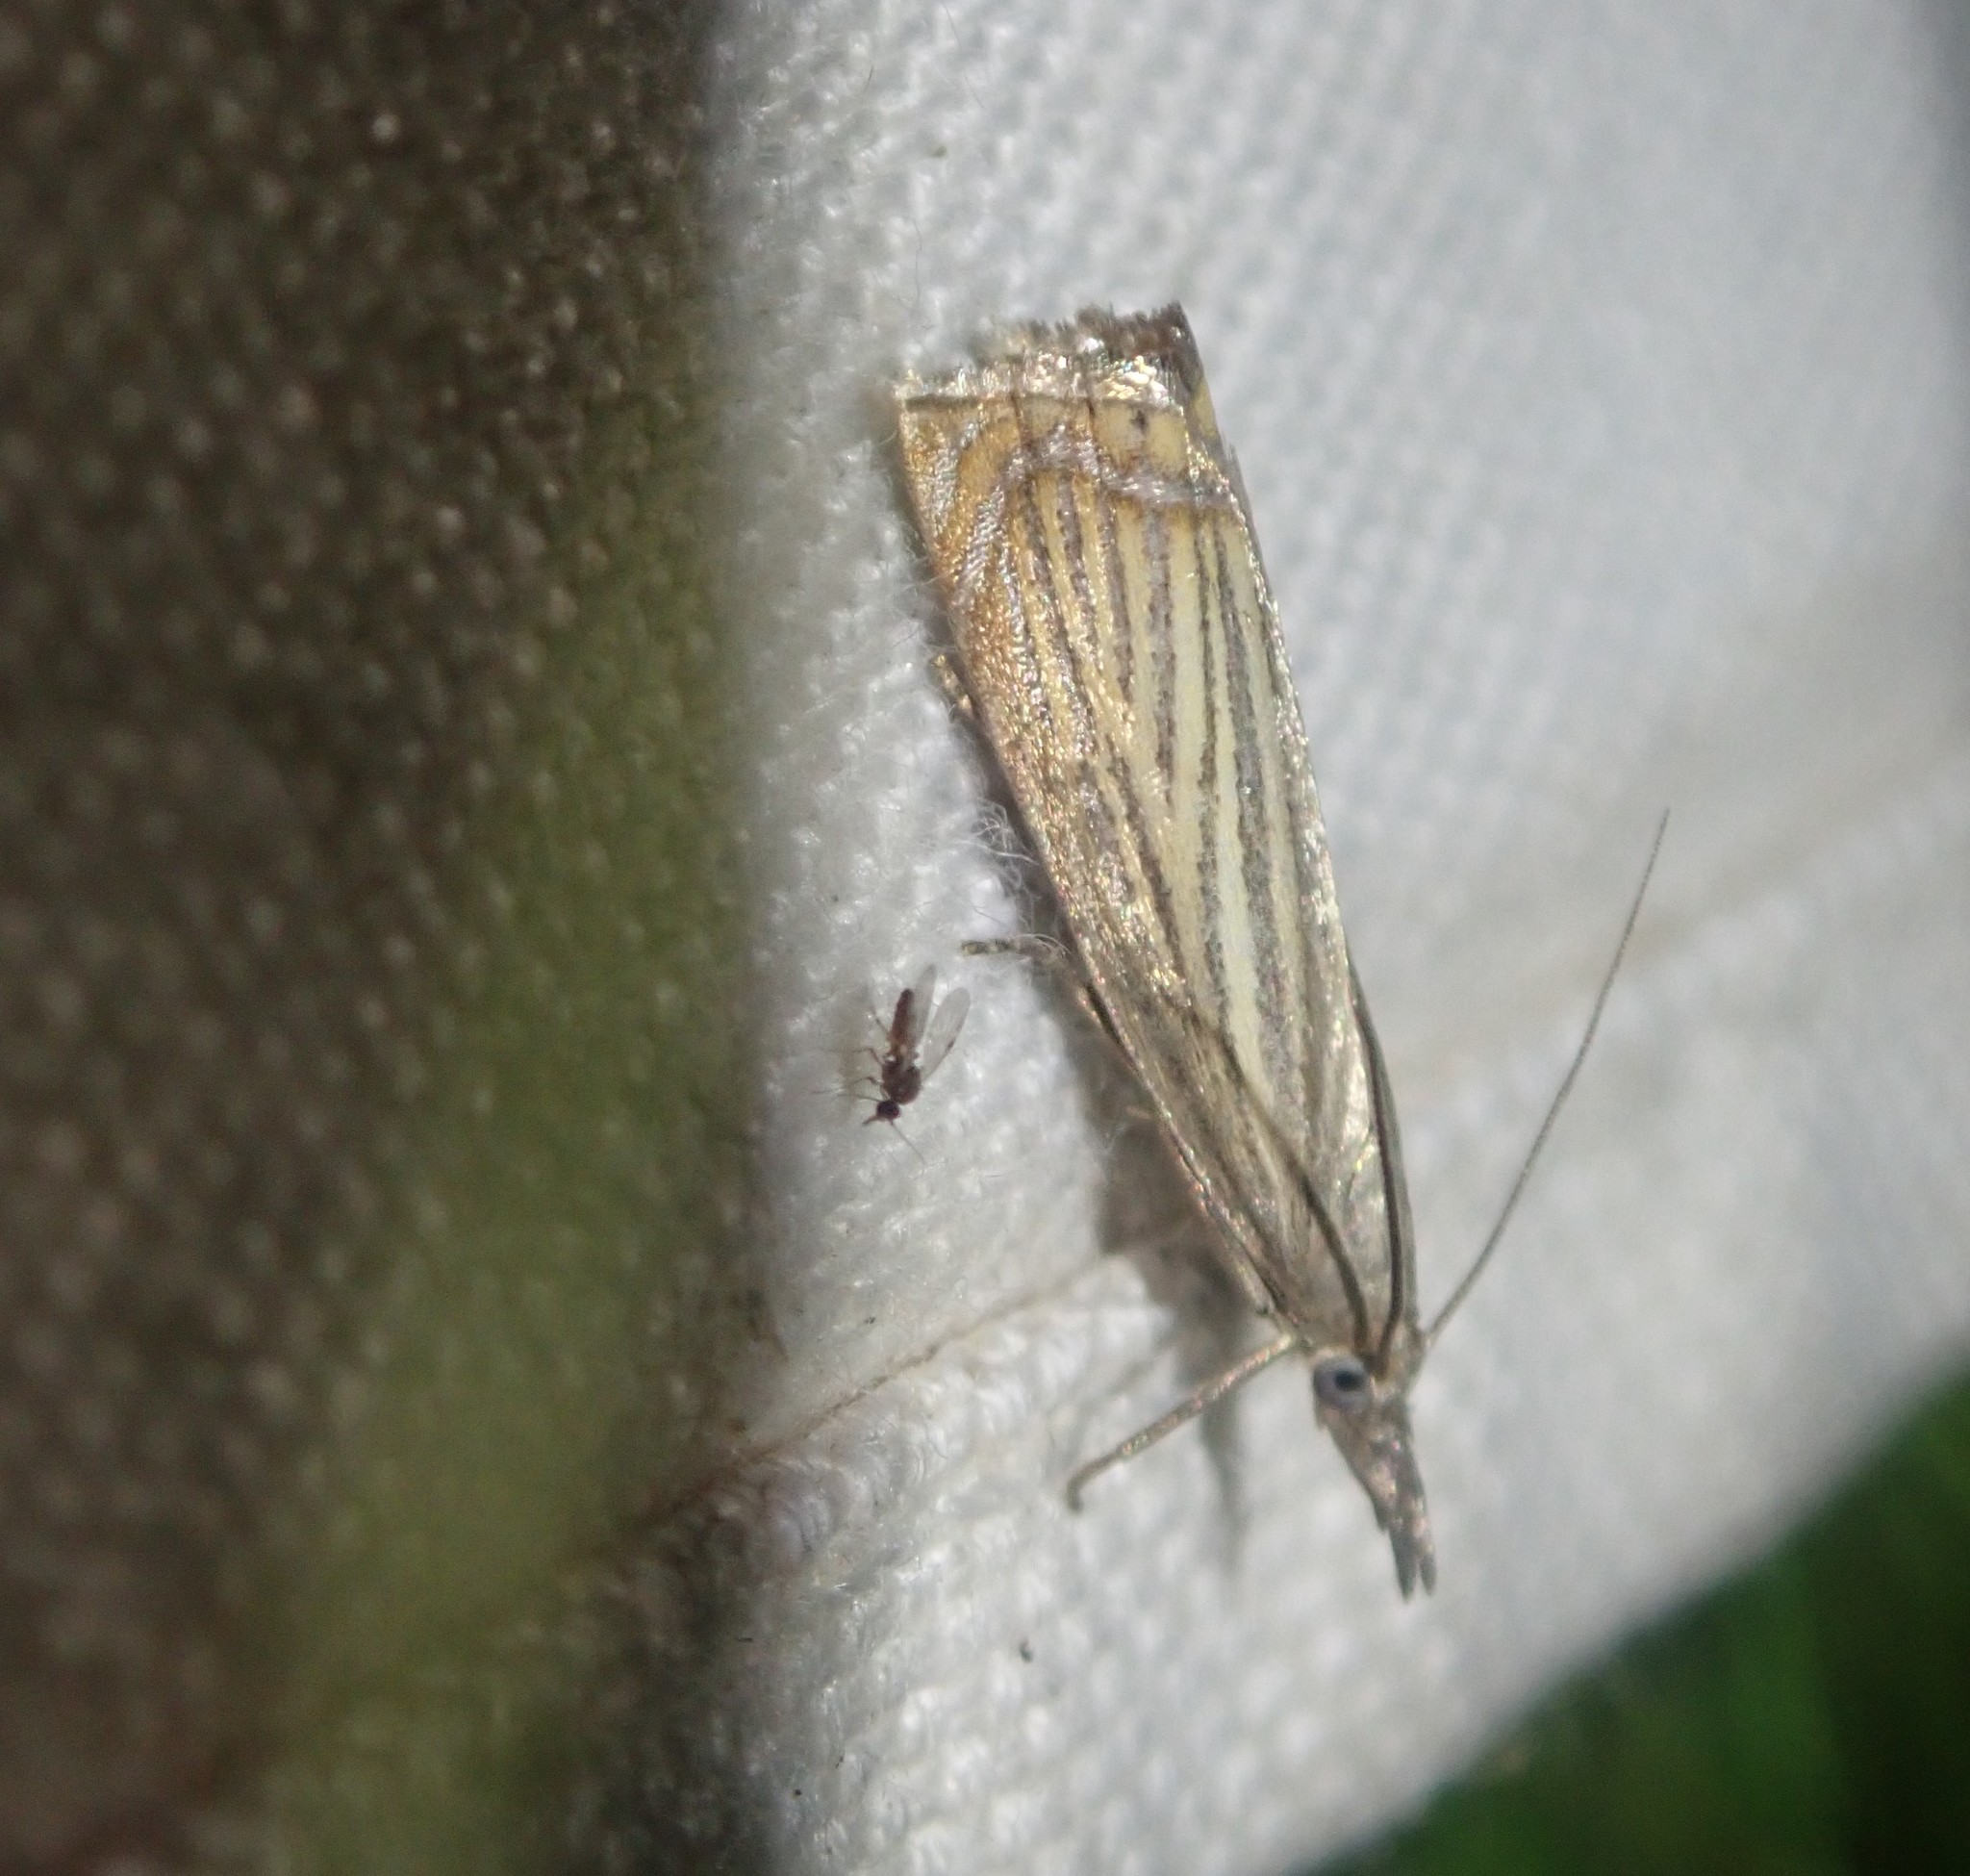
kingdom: Animalia
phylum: Arthropoda
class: Insecta
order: Lepidoptera
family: Crambidae
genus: Chrysoteuchia
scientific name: Chrysoteuchia culmella
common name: Garden grass-veneer
